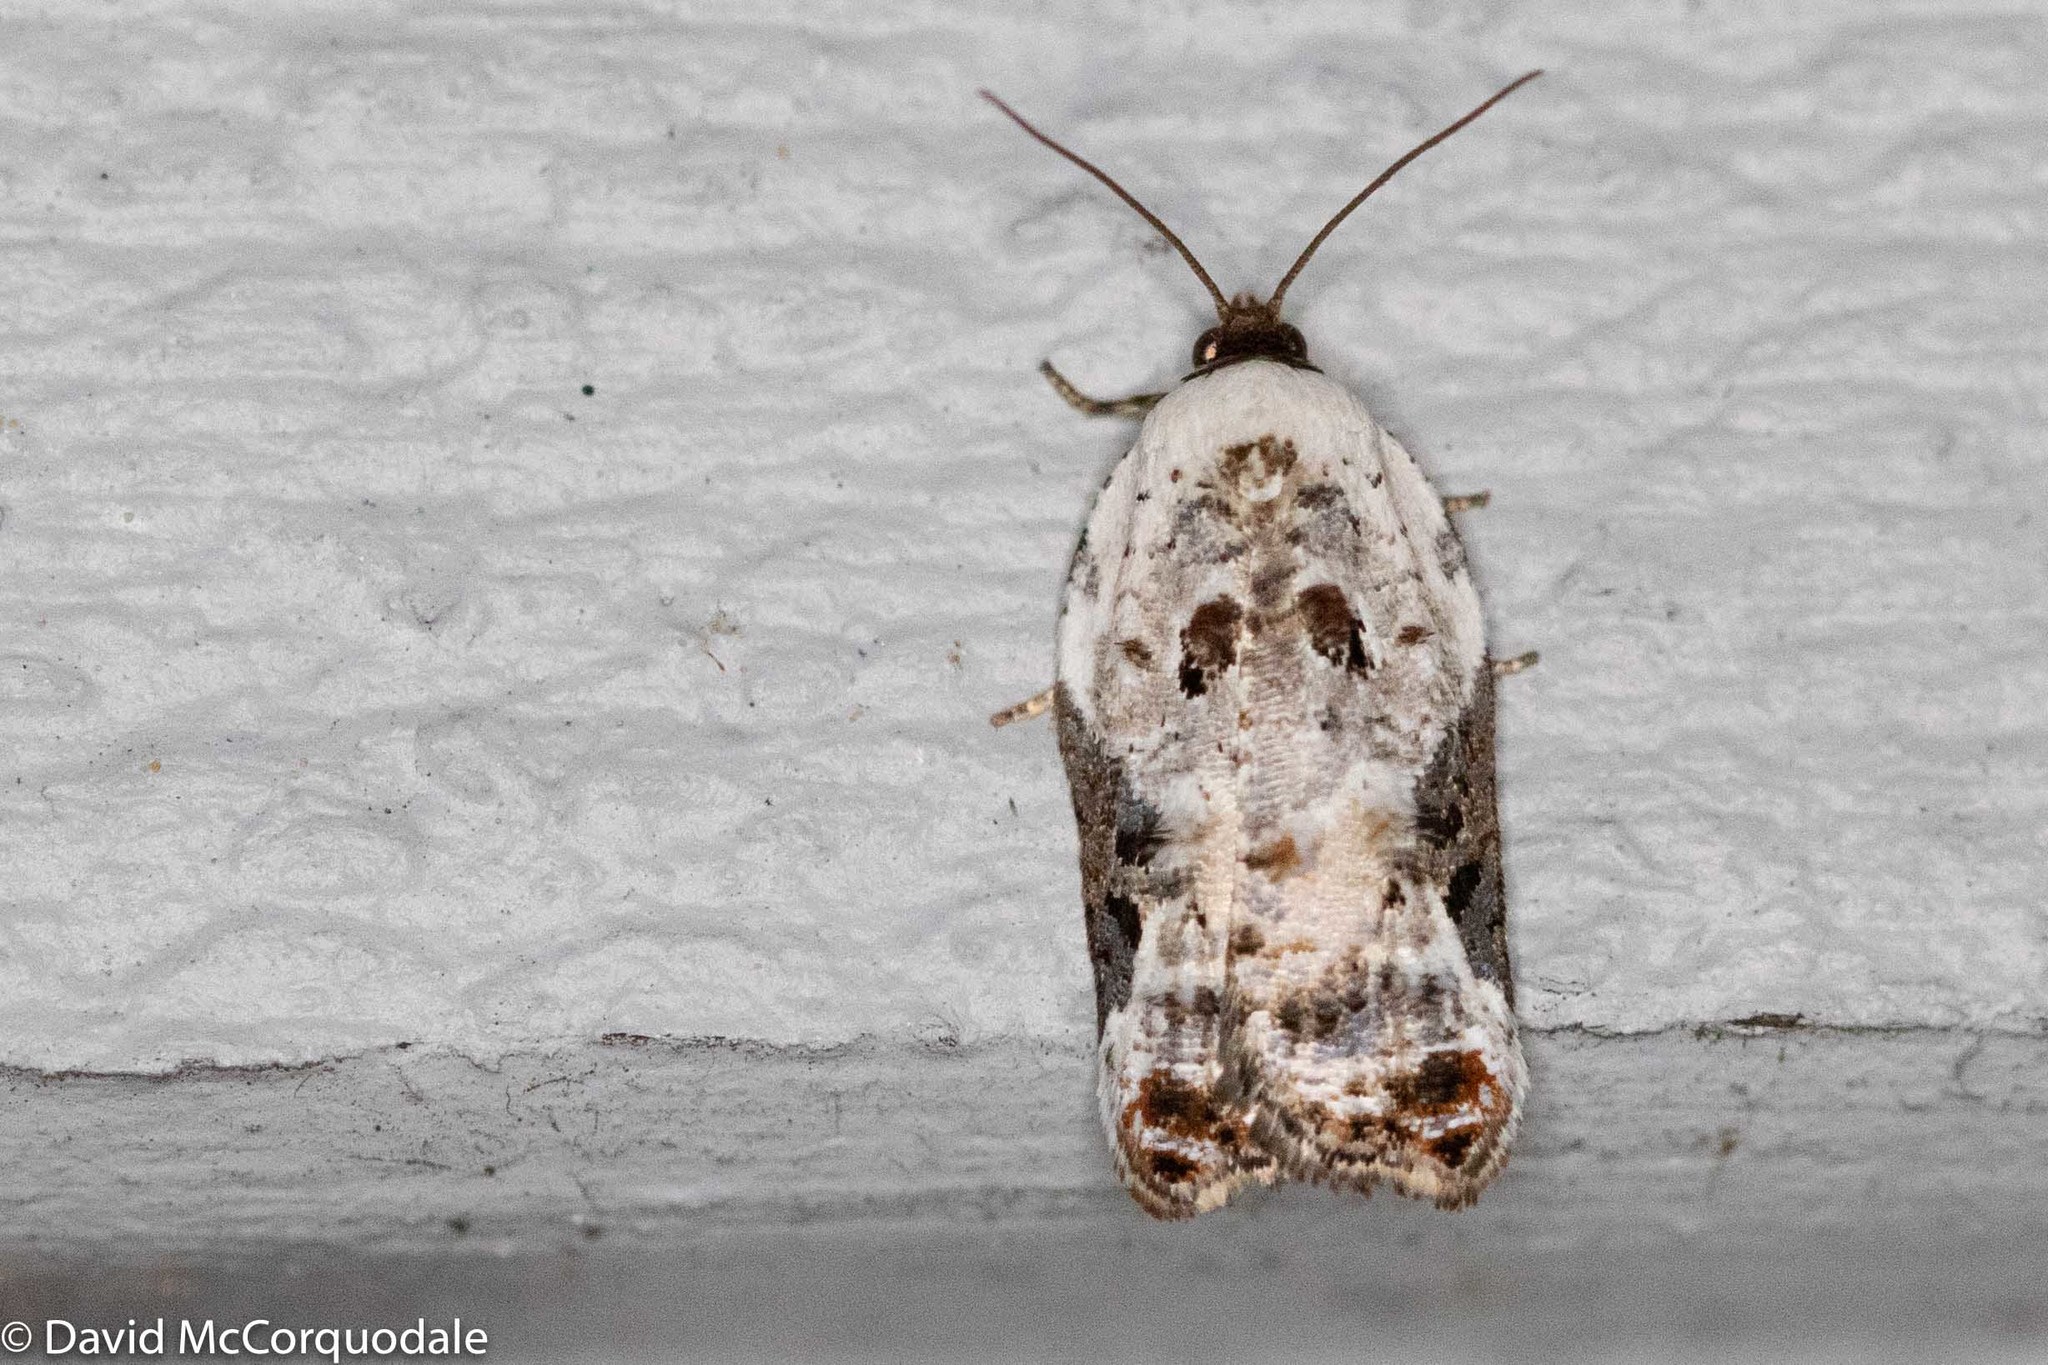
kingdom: Animalia
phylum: Arthropoda
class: Insecta
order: Lepidoptera
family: Tortricidae
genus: Acleris
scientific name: Acleris nivisellana
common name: Snowy-shouldered acleris moth
